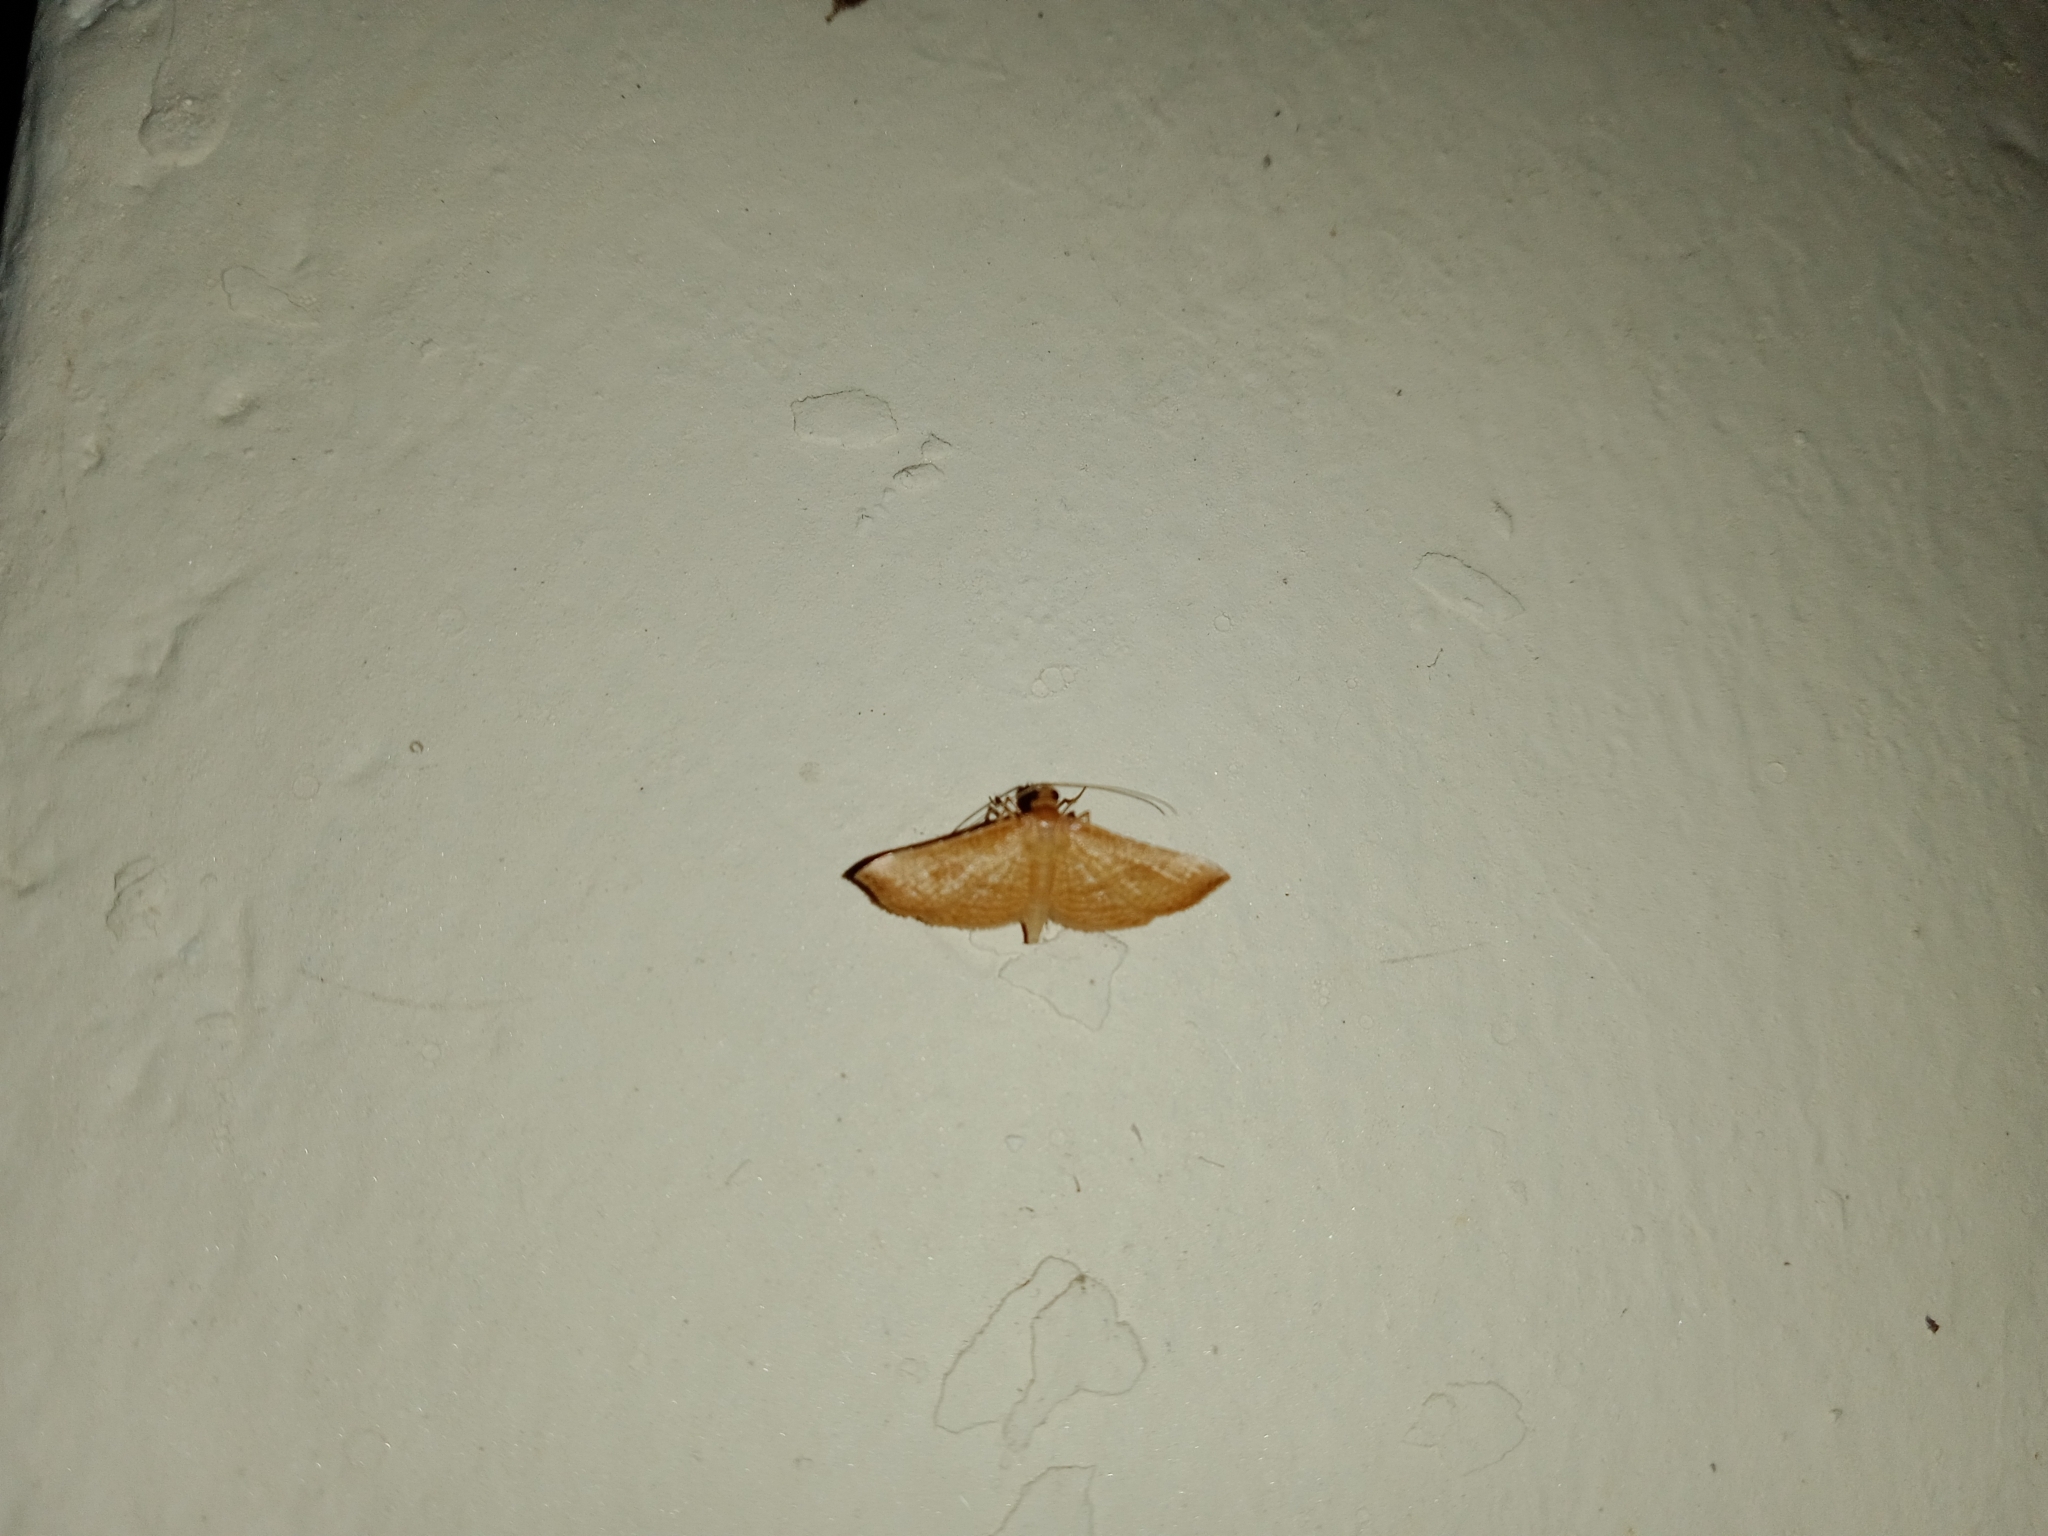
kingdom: Animalia
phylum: Arthropoda
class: Insecta
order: Lepidoptera
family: Thyrididae
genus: Addaea
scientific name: Addaea trimeronalis
